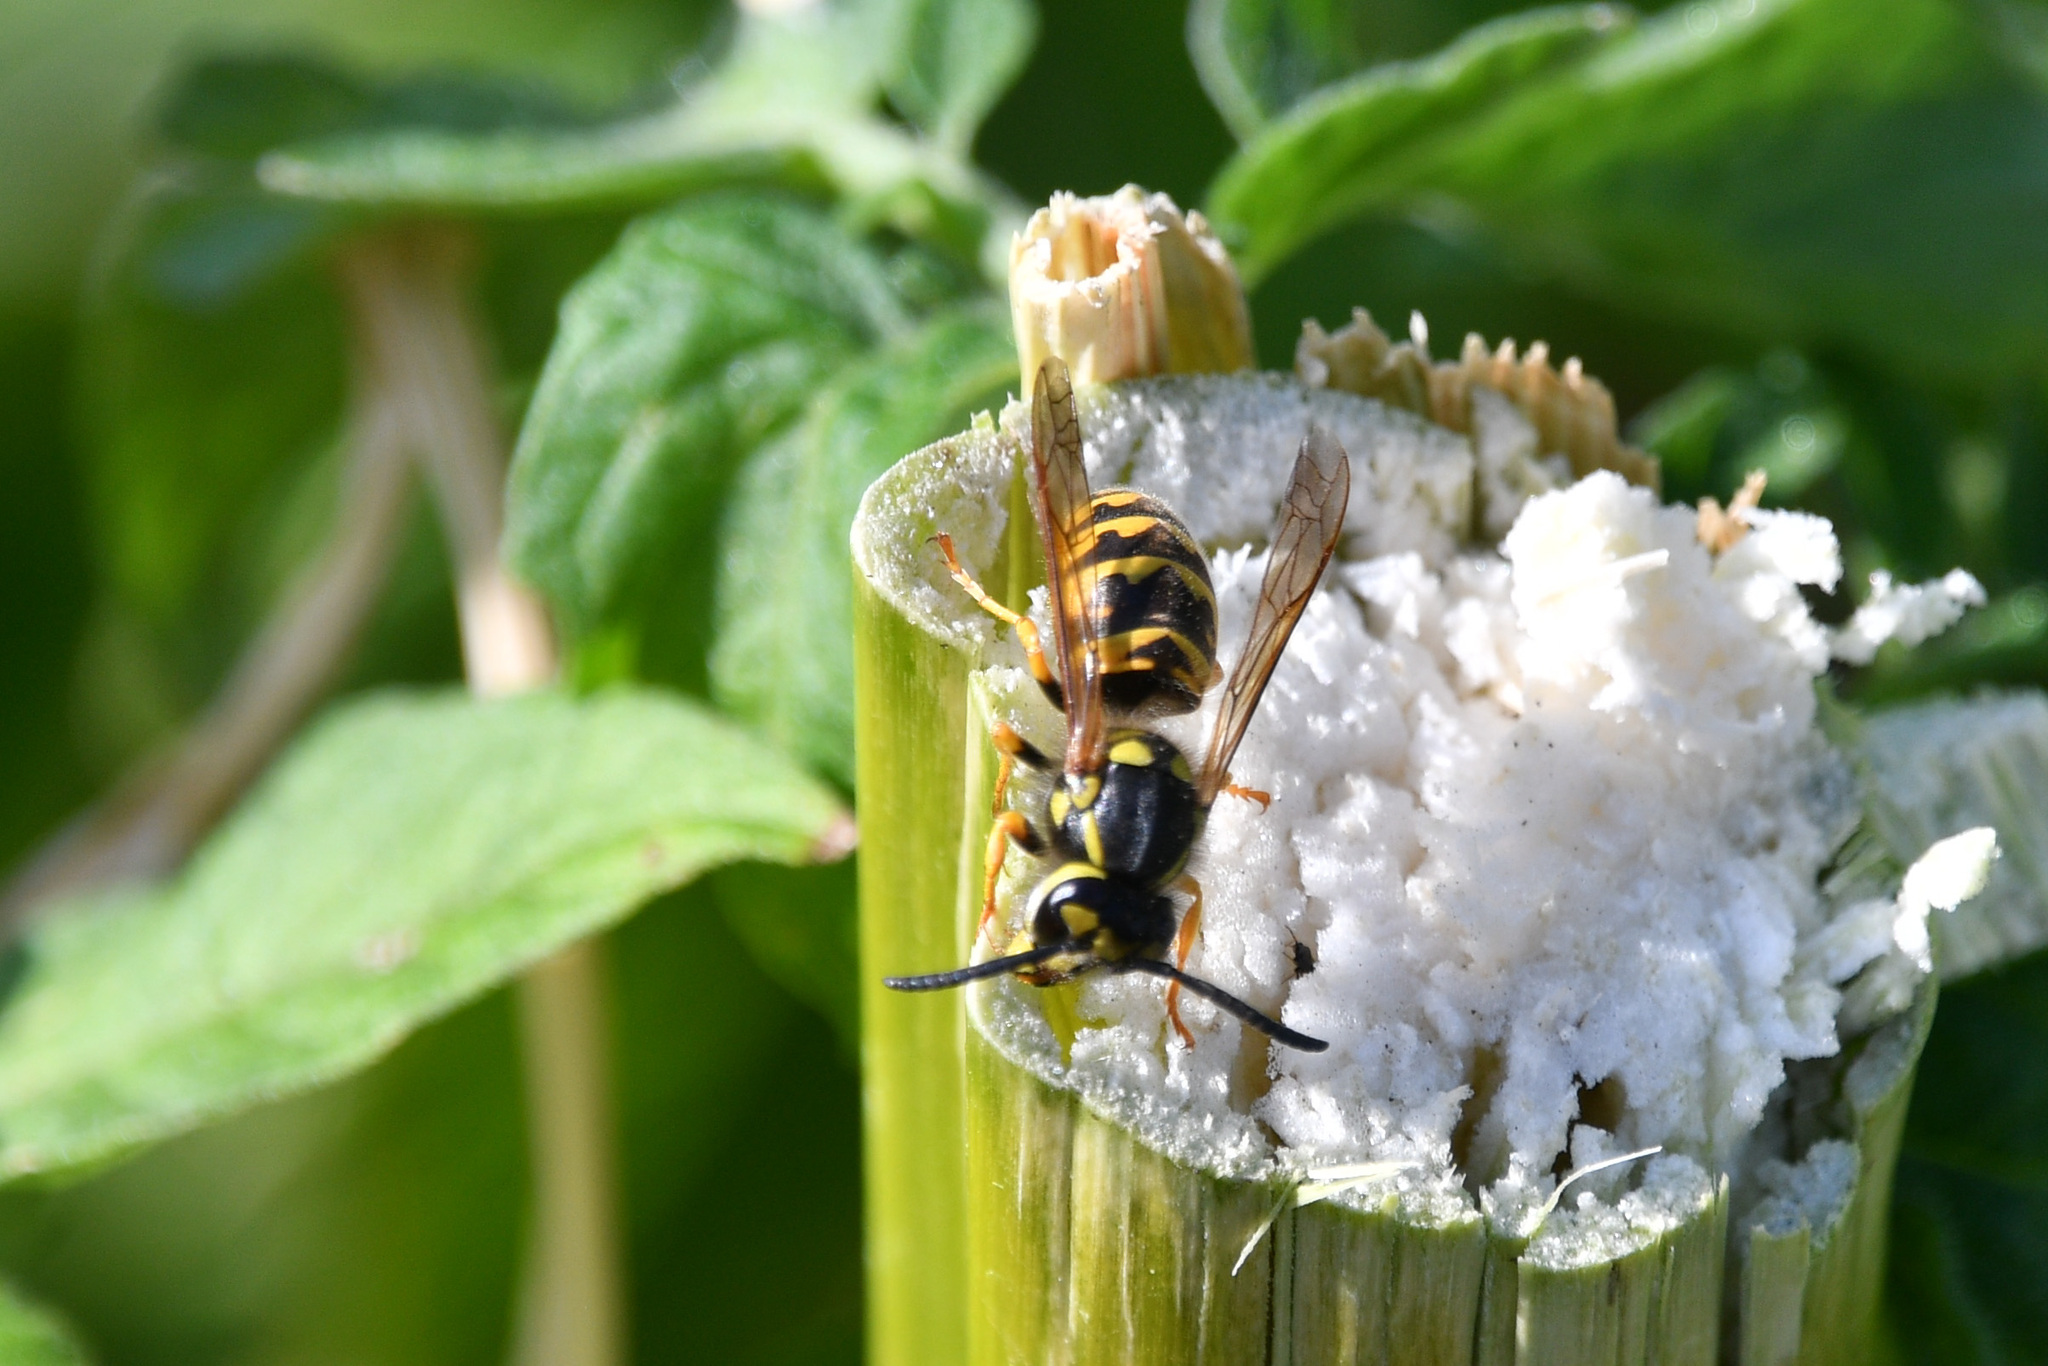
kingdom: Animalia
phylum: Arthropoda
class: Insecta
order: Hymenoptera
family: Vespidae
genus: Vespula
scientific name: Vespula germanica
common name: German wasp
